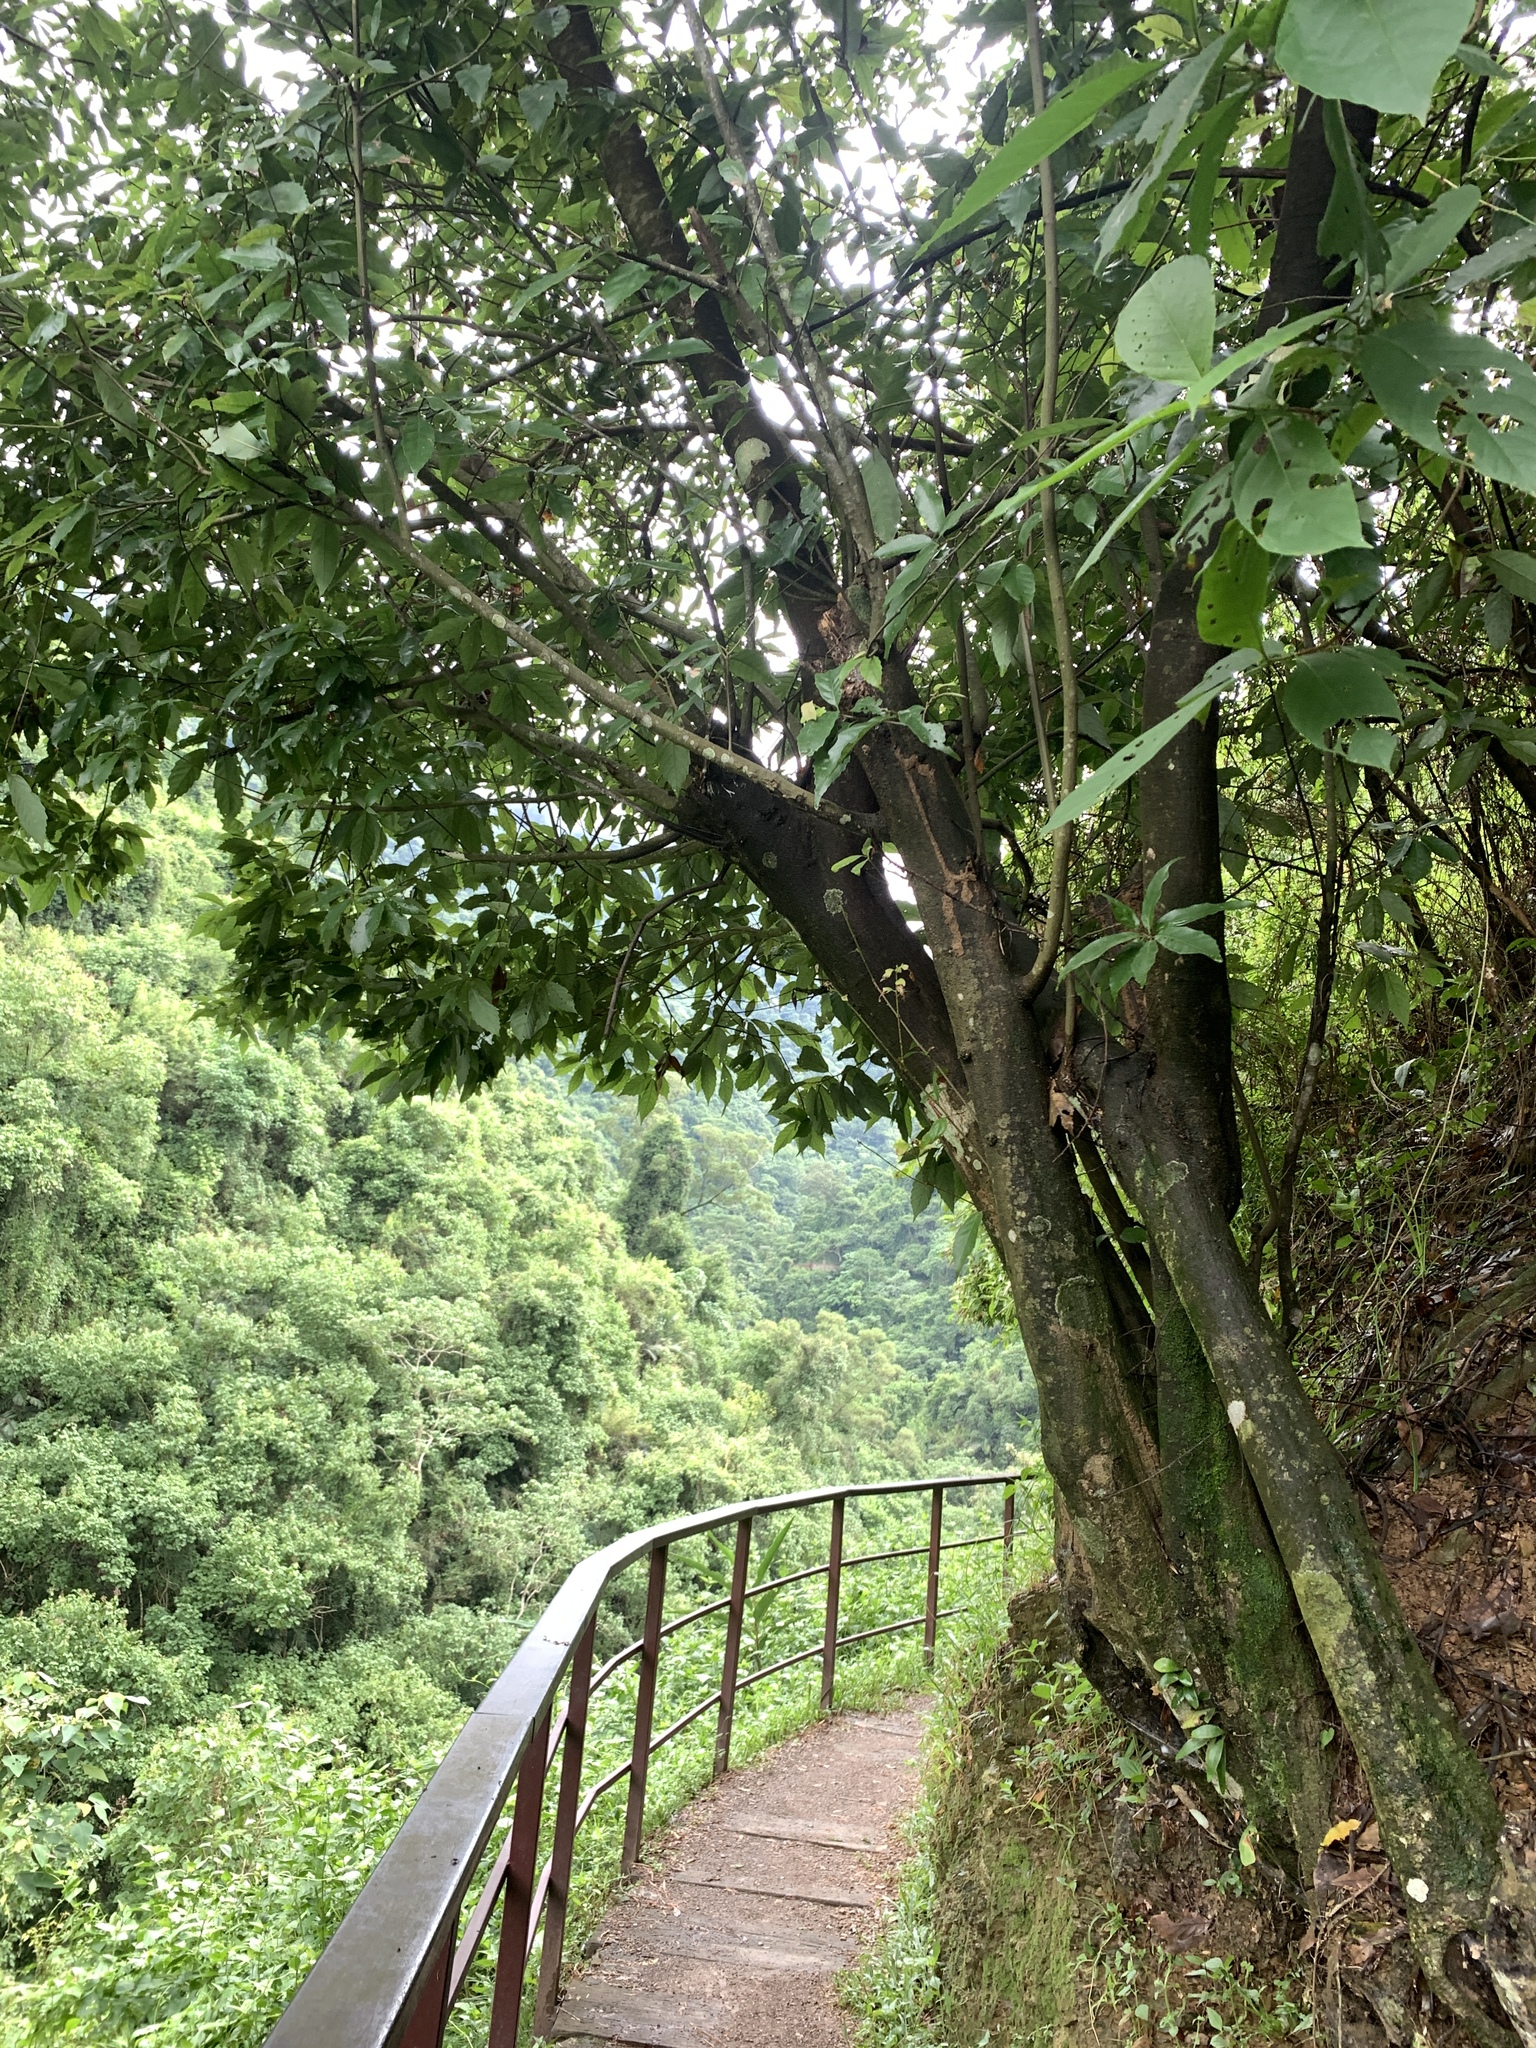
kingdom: Plantae
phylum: Tracheophyta
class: Magnoliopsida
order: Fagales
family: Fagaceae
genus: Quercus
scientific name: Quercus glauca
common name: Ring-cup oak
